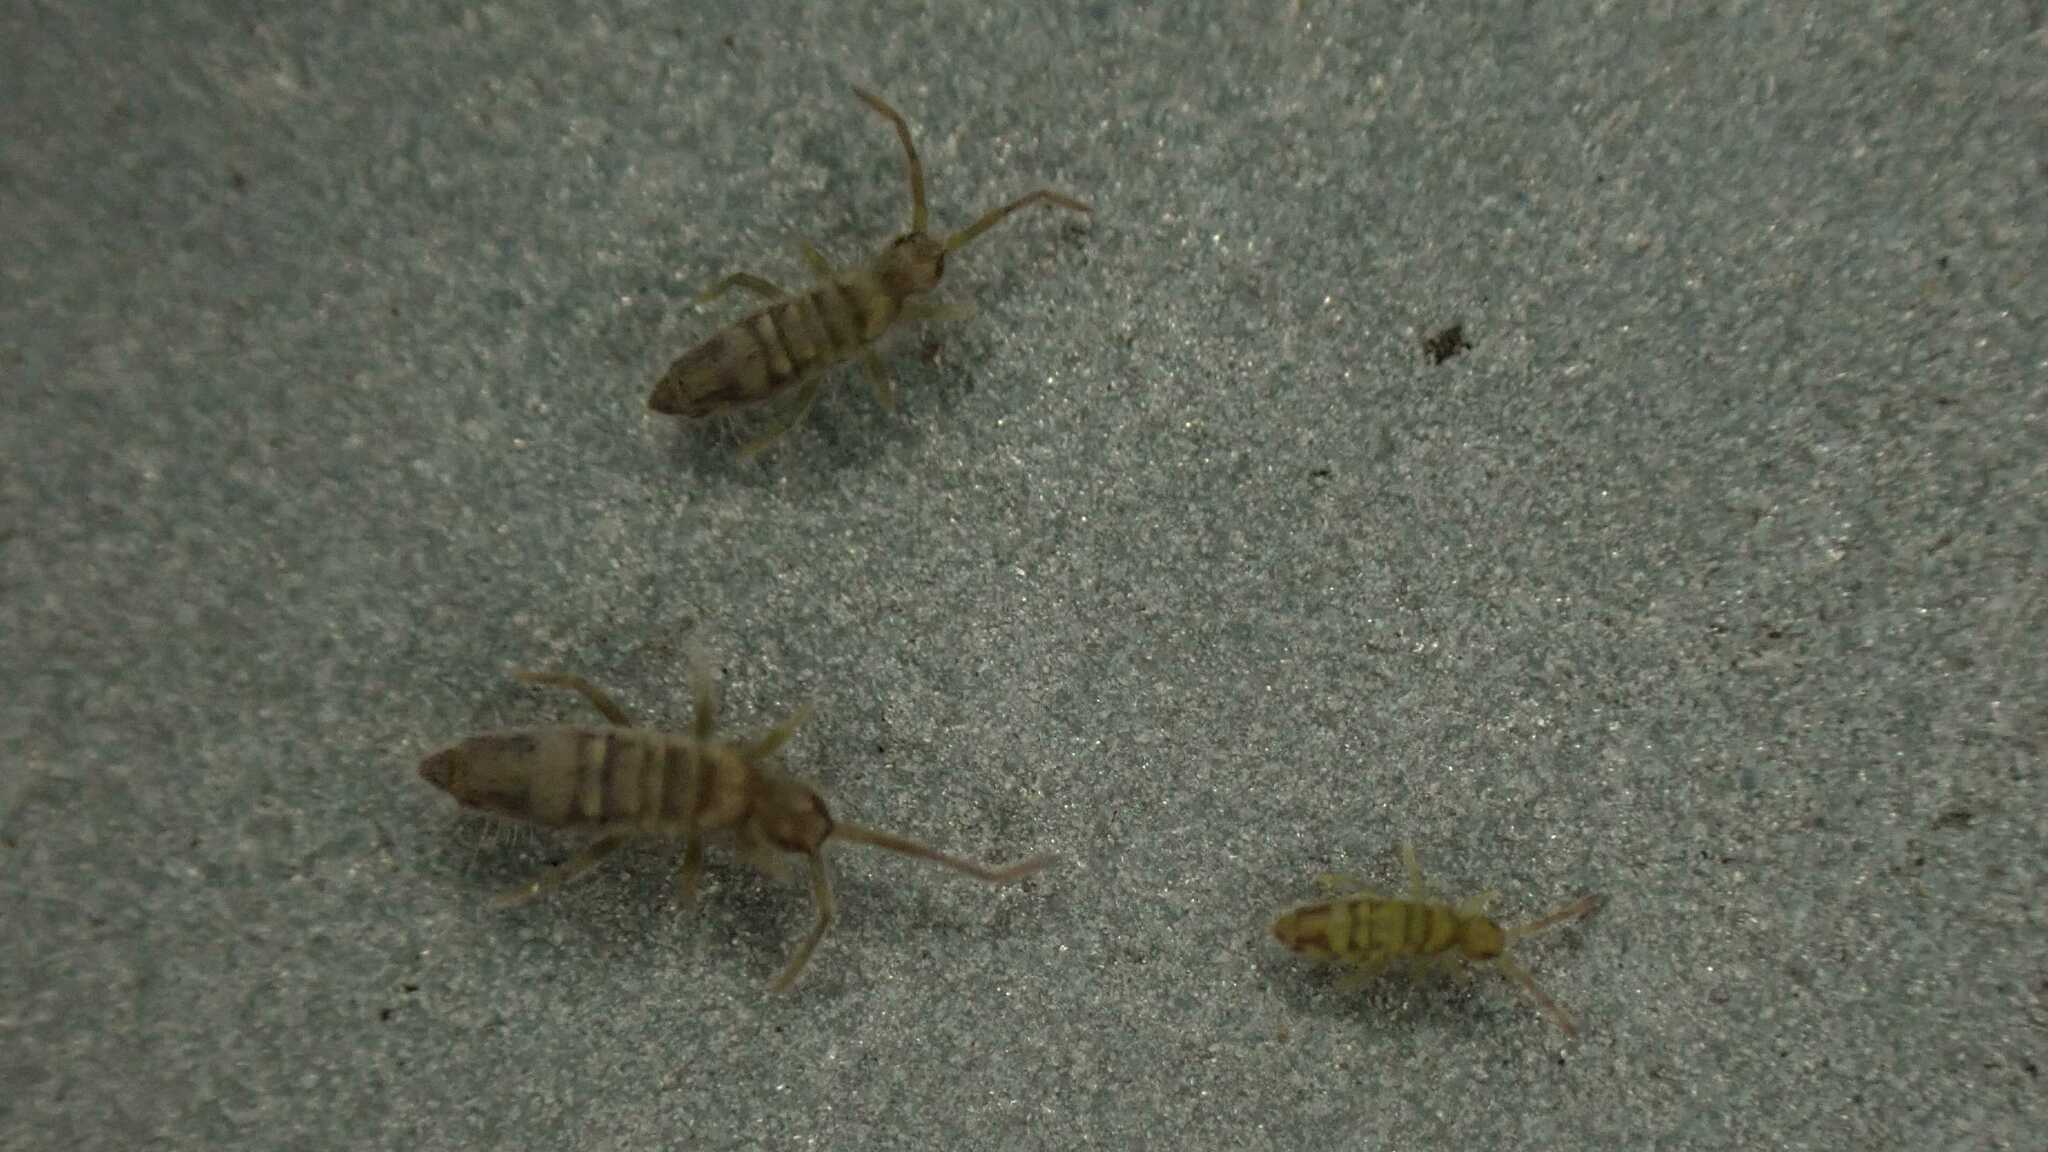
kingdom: Animalia
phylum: Arthropoda
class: Collembola
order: Entomobryomorpha
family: Entomobryidae
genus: Entomobrya
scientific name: Entomobrya nivalis
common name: Cosmopolitan springtail
